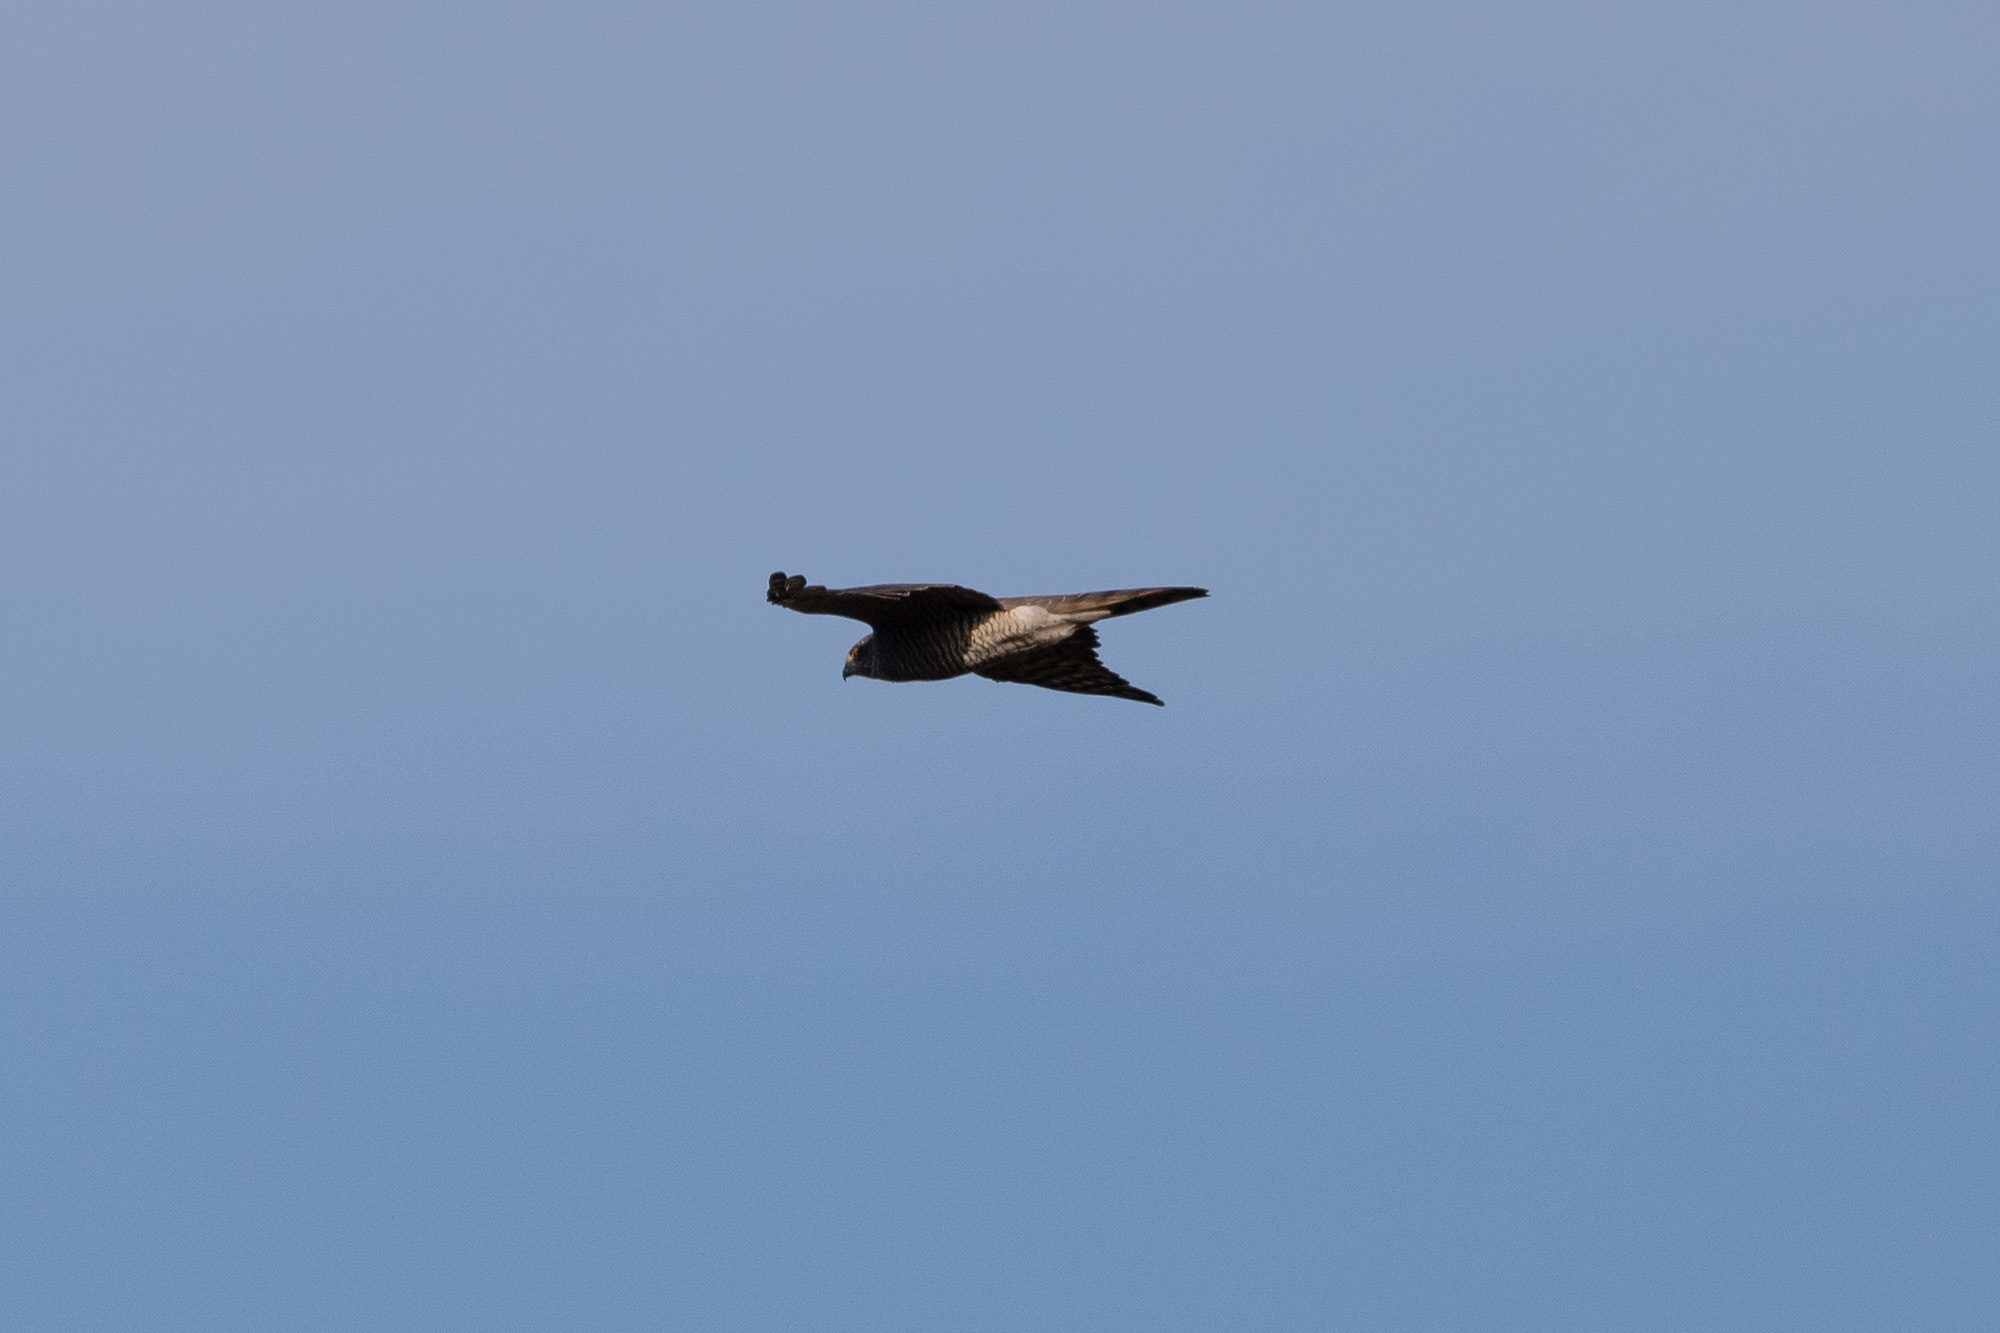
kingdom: Animalia
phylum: Chordata
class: Aves
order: Accipitriformes
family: Accipitridae
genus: Accipiter
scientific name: Accipiter gentilis
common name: Northern goshawk
